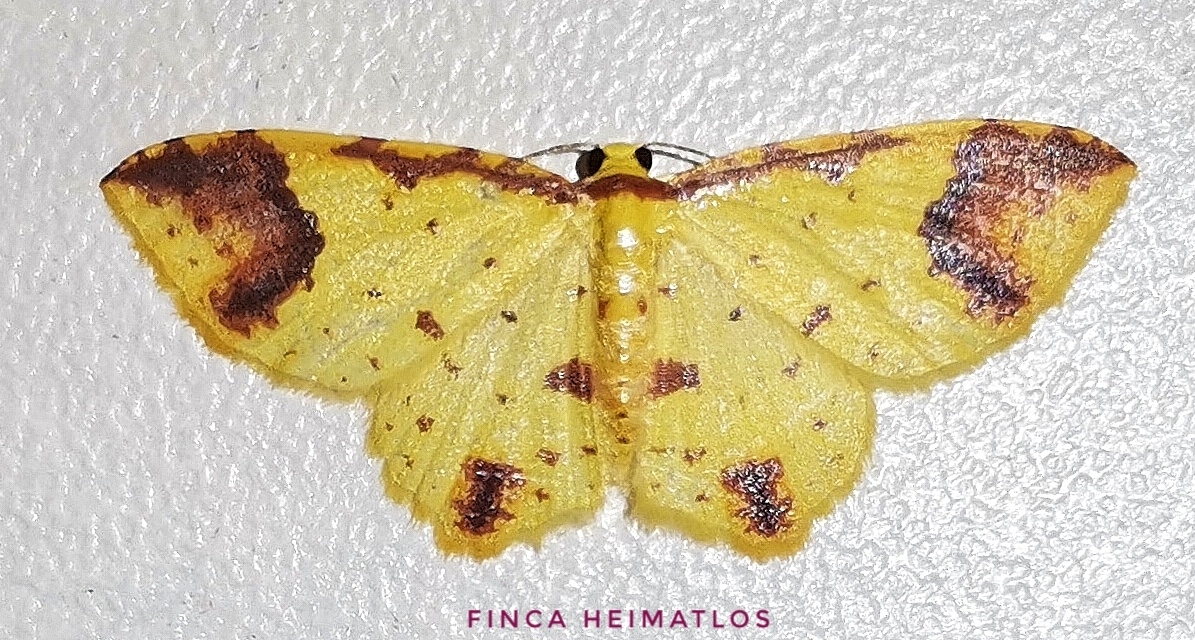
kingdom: Animalia
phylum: Arthropoda
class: Insecta
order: Lepidoptera
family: Geometridae
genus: Eois
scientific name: Eois restrictata
